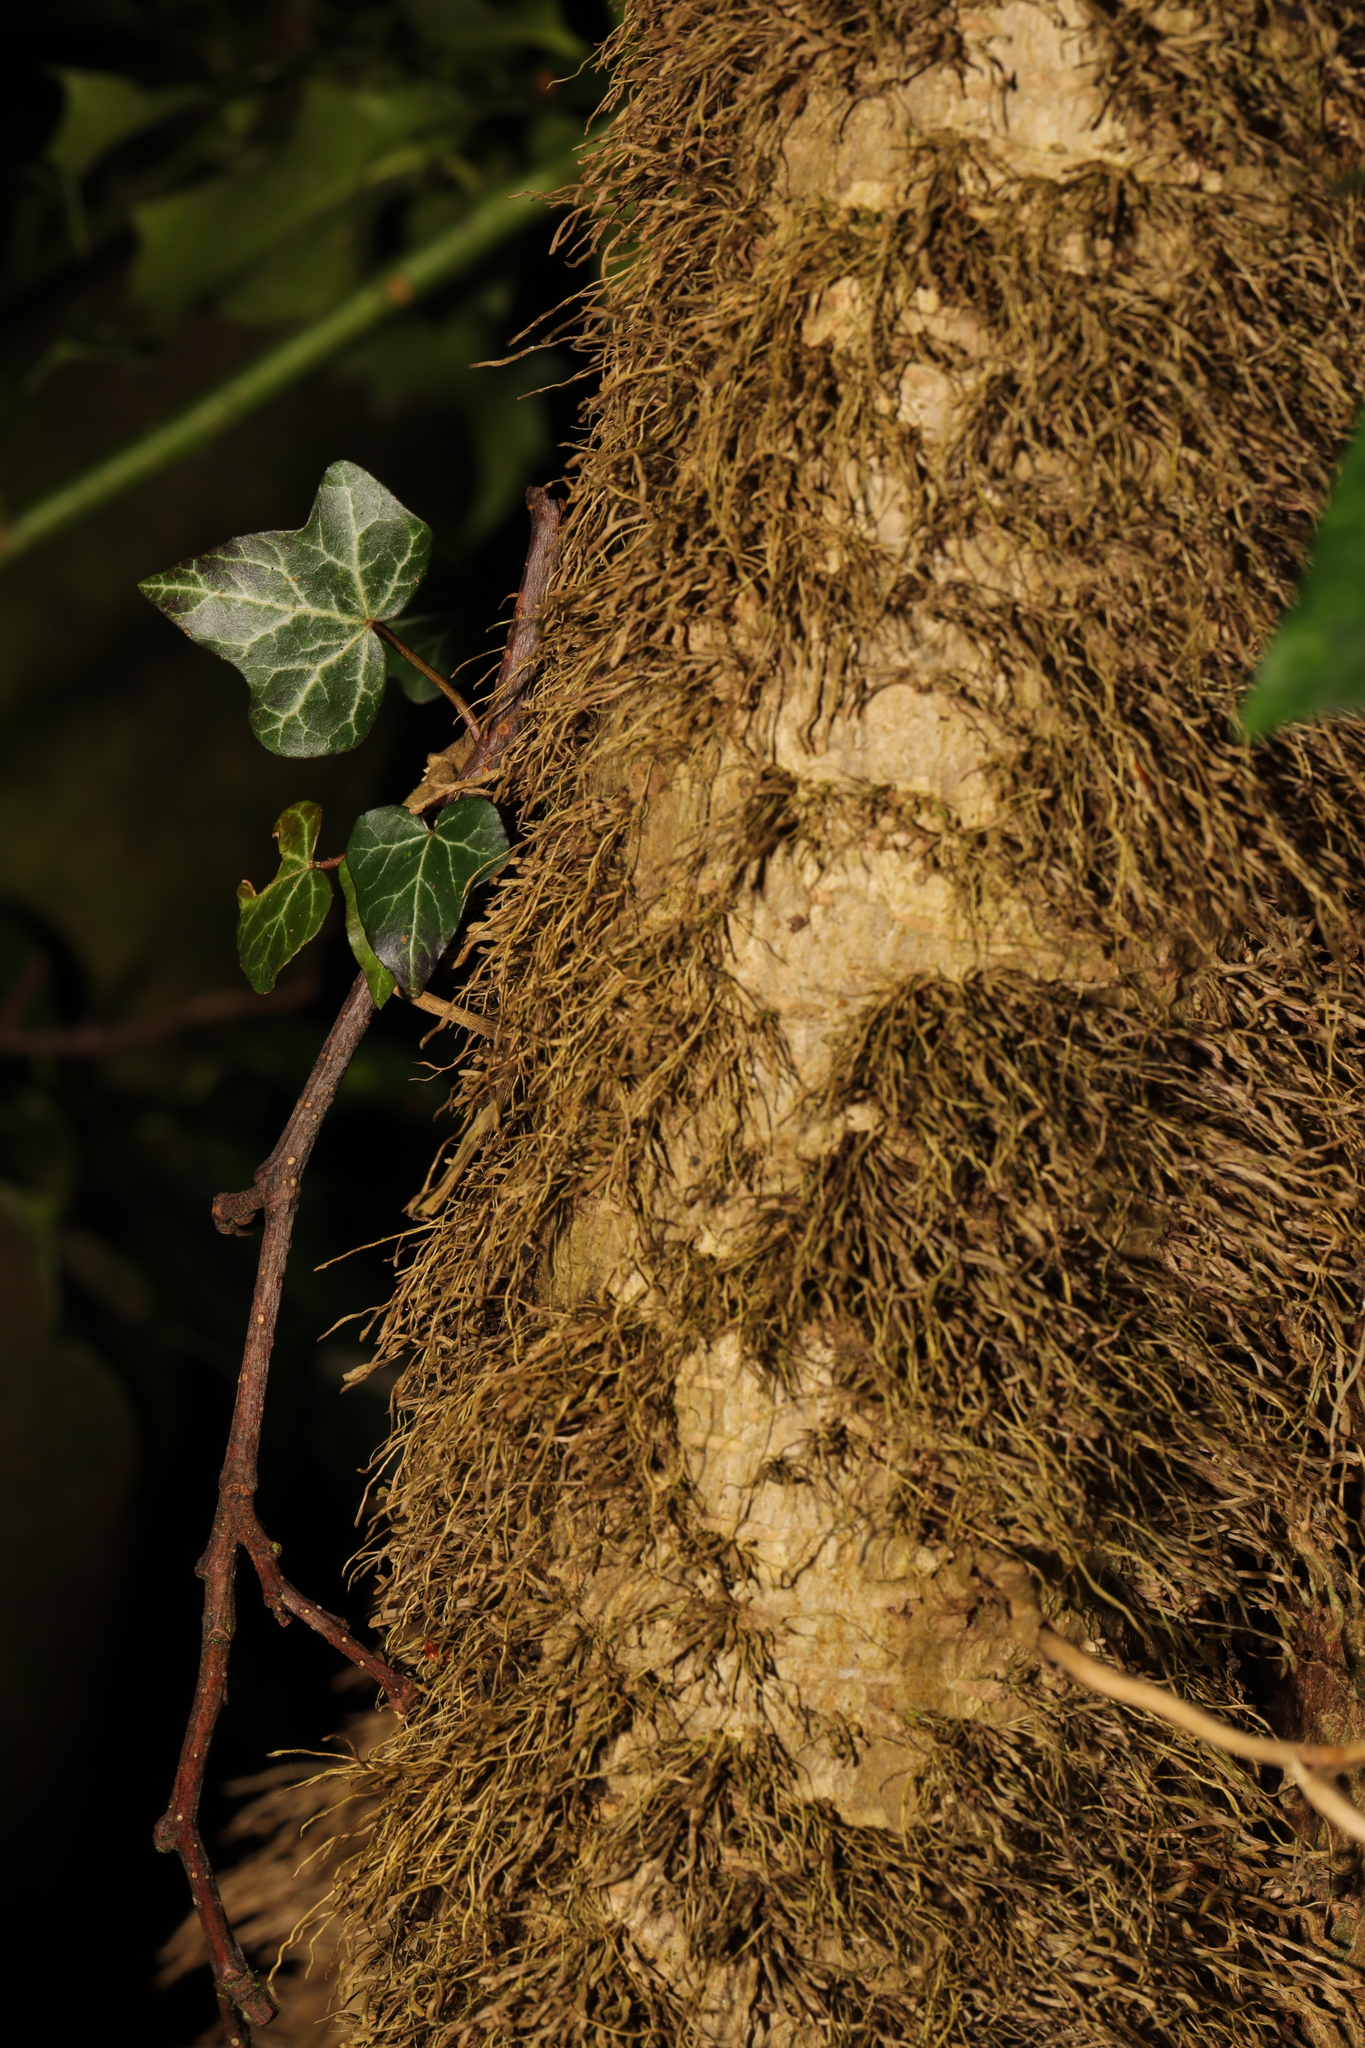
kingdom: Plantae
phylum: Tracheophyta
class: Magnoliopsida
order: Apiales
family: Araliaceae
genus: Hedera
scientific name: Hedera helix
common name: Ivy
